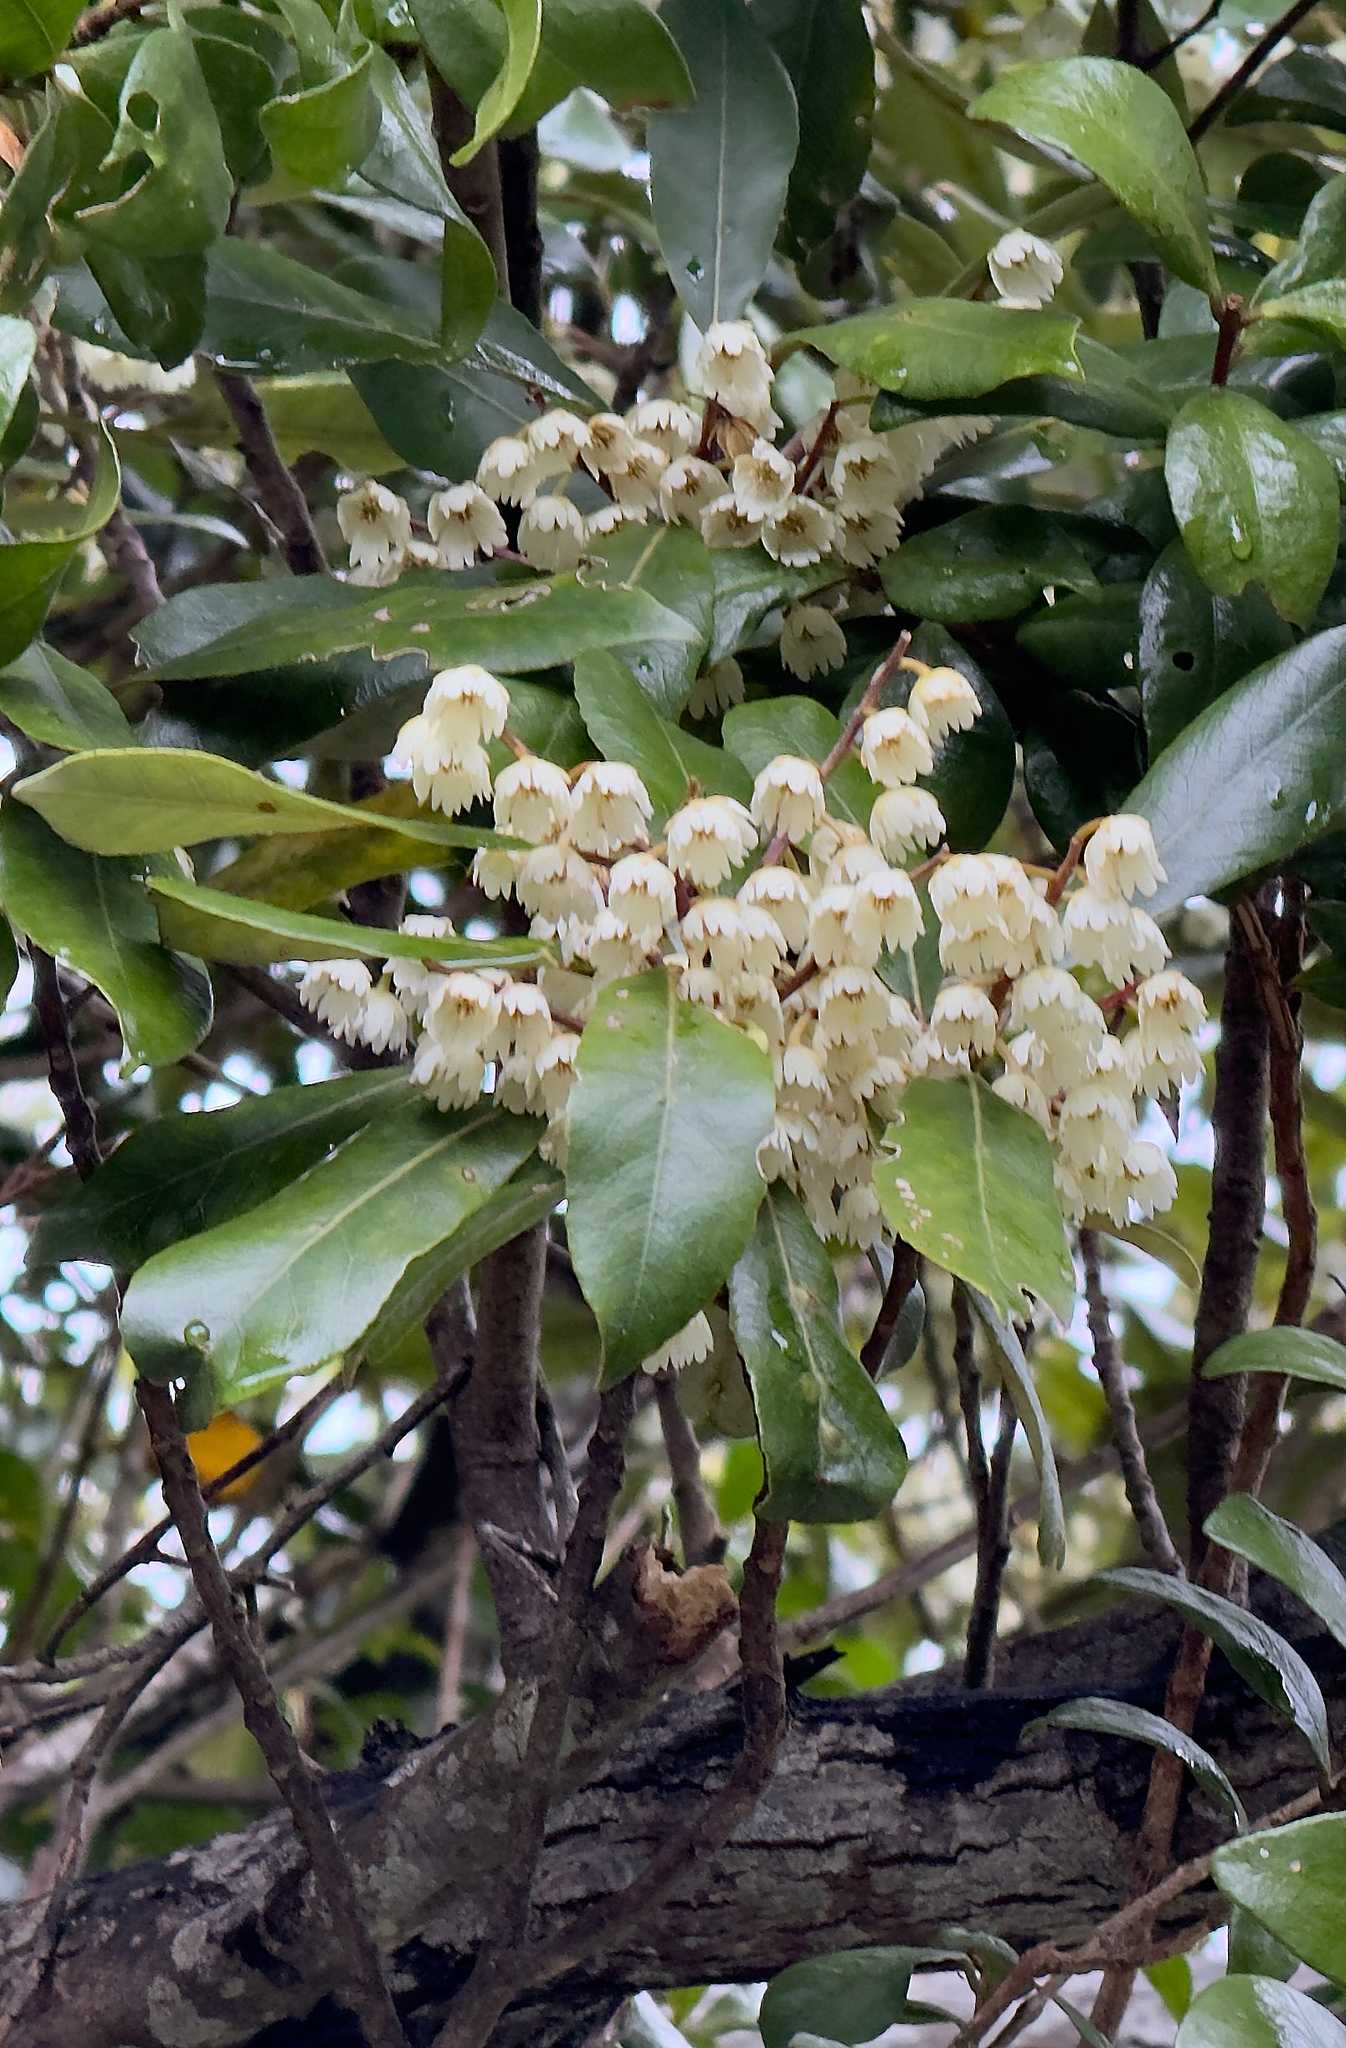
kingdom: Plantae
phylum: Tracheophyta
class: Magnoliopsida
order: Oxalidales
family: Elaeocarpaceae
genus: Elaeocarpus
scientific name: Elaeocarpus dentatus
